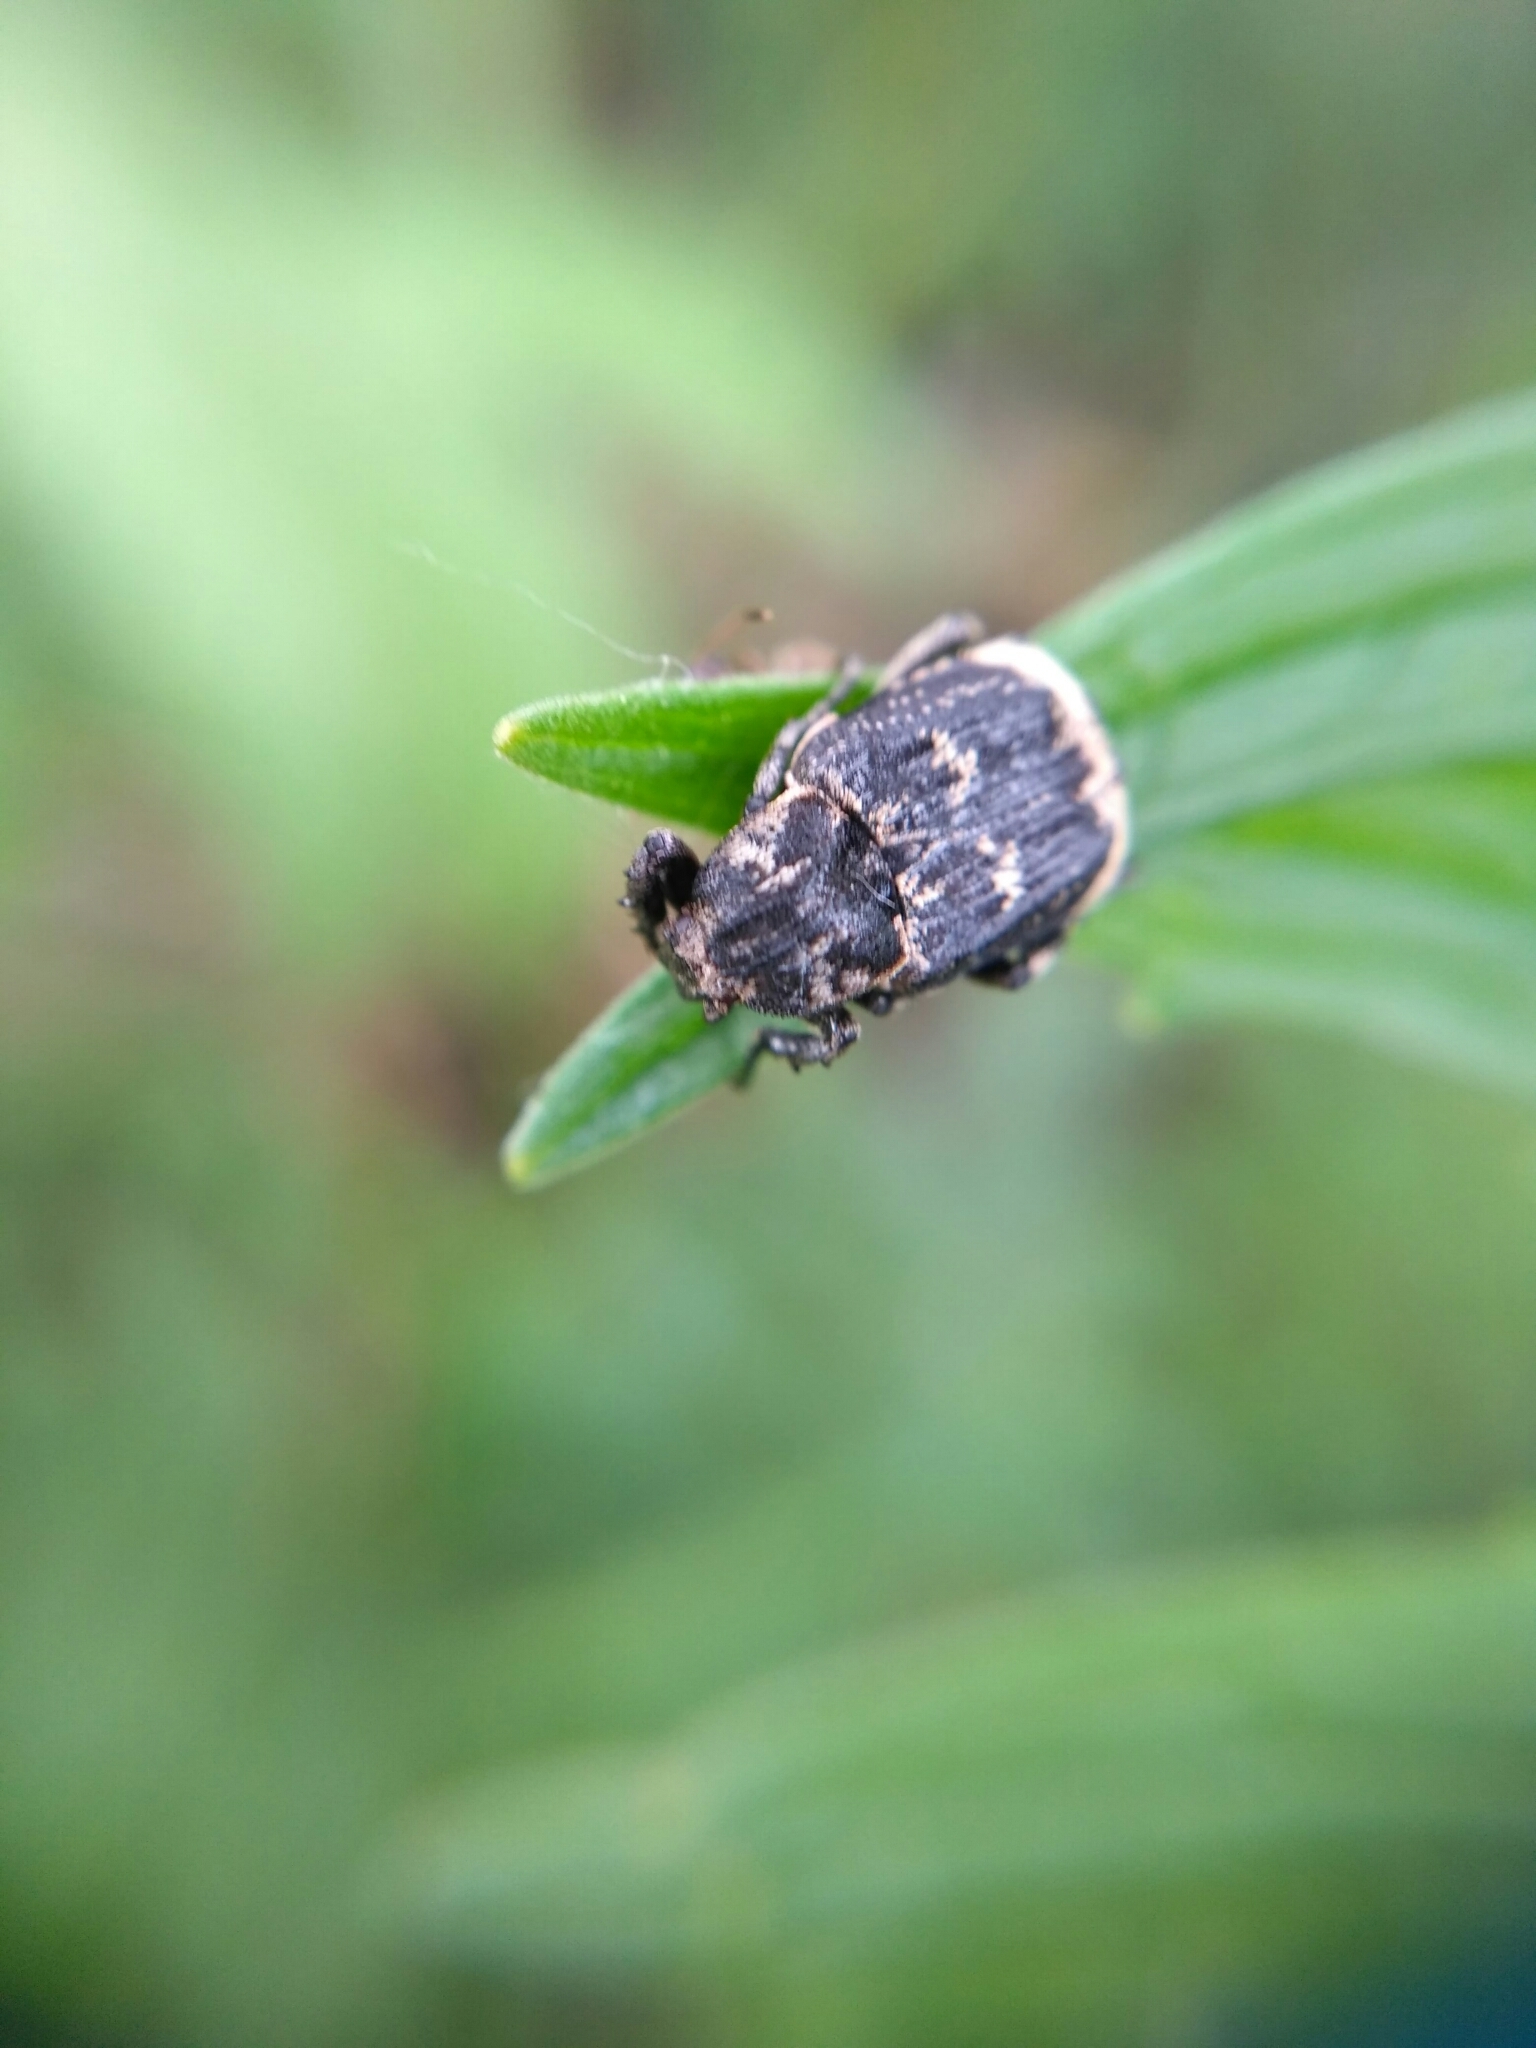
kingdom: Animalia
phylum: Arthropoda
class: Insecta
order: Coleoptera
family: Scarabaeidae
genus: Valgus
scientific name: Valgus hemipterus
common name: Bug flower chafer
